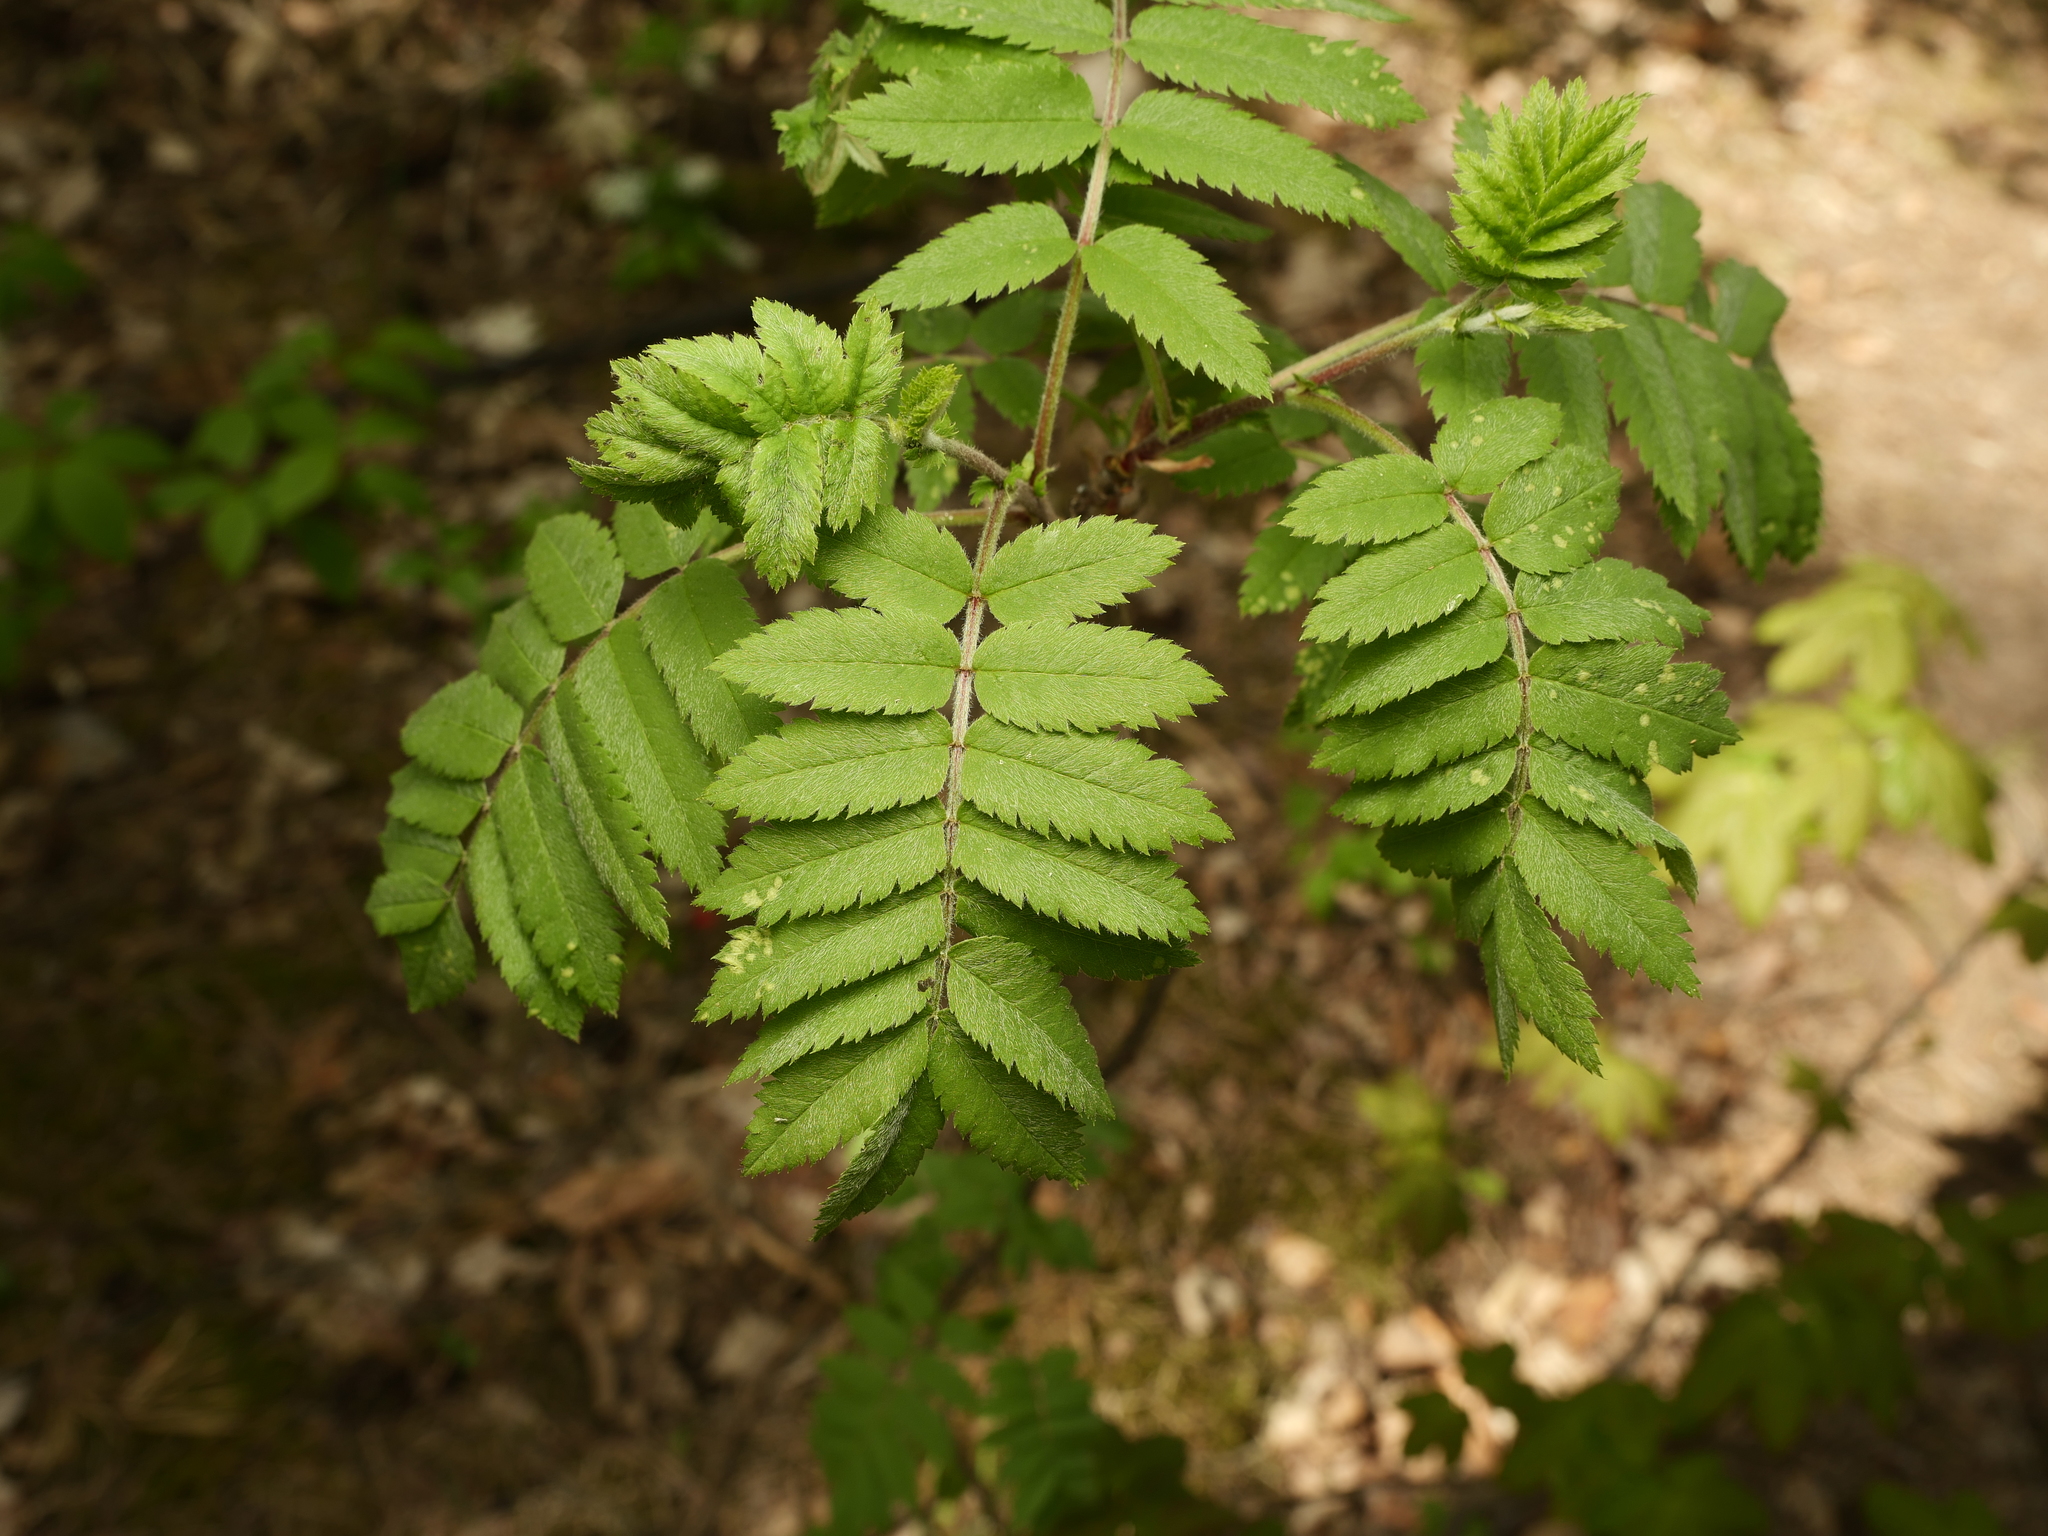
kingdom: Plantae
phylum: Tracheophyta
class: Magnoliopsida
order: Rosales
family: Rosaceae
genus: Sorbus
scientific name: Sorbus aucuparia
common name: Rowan
